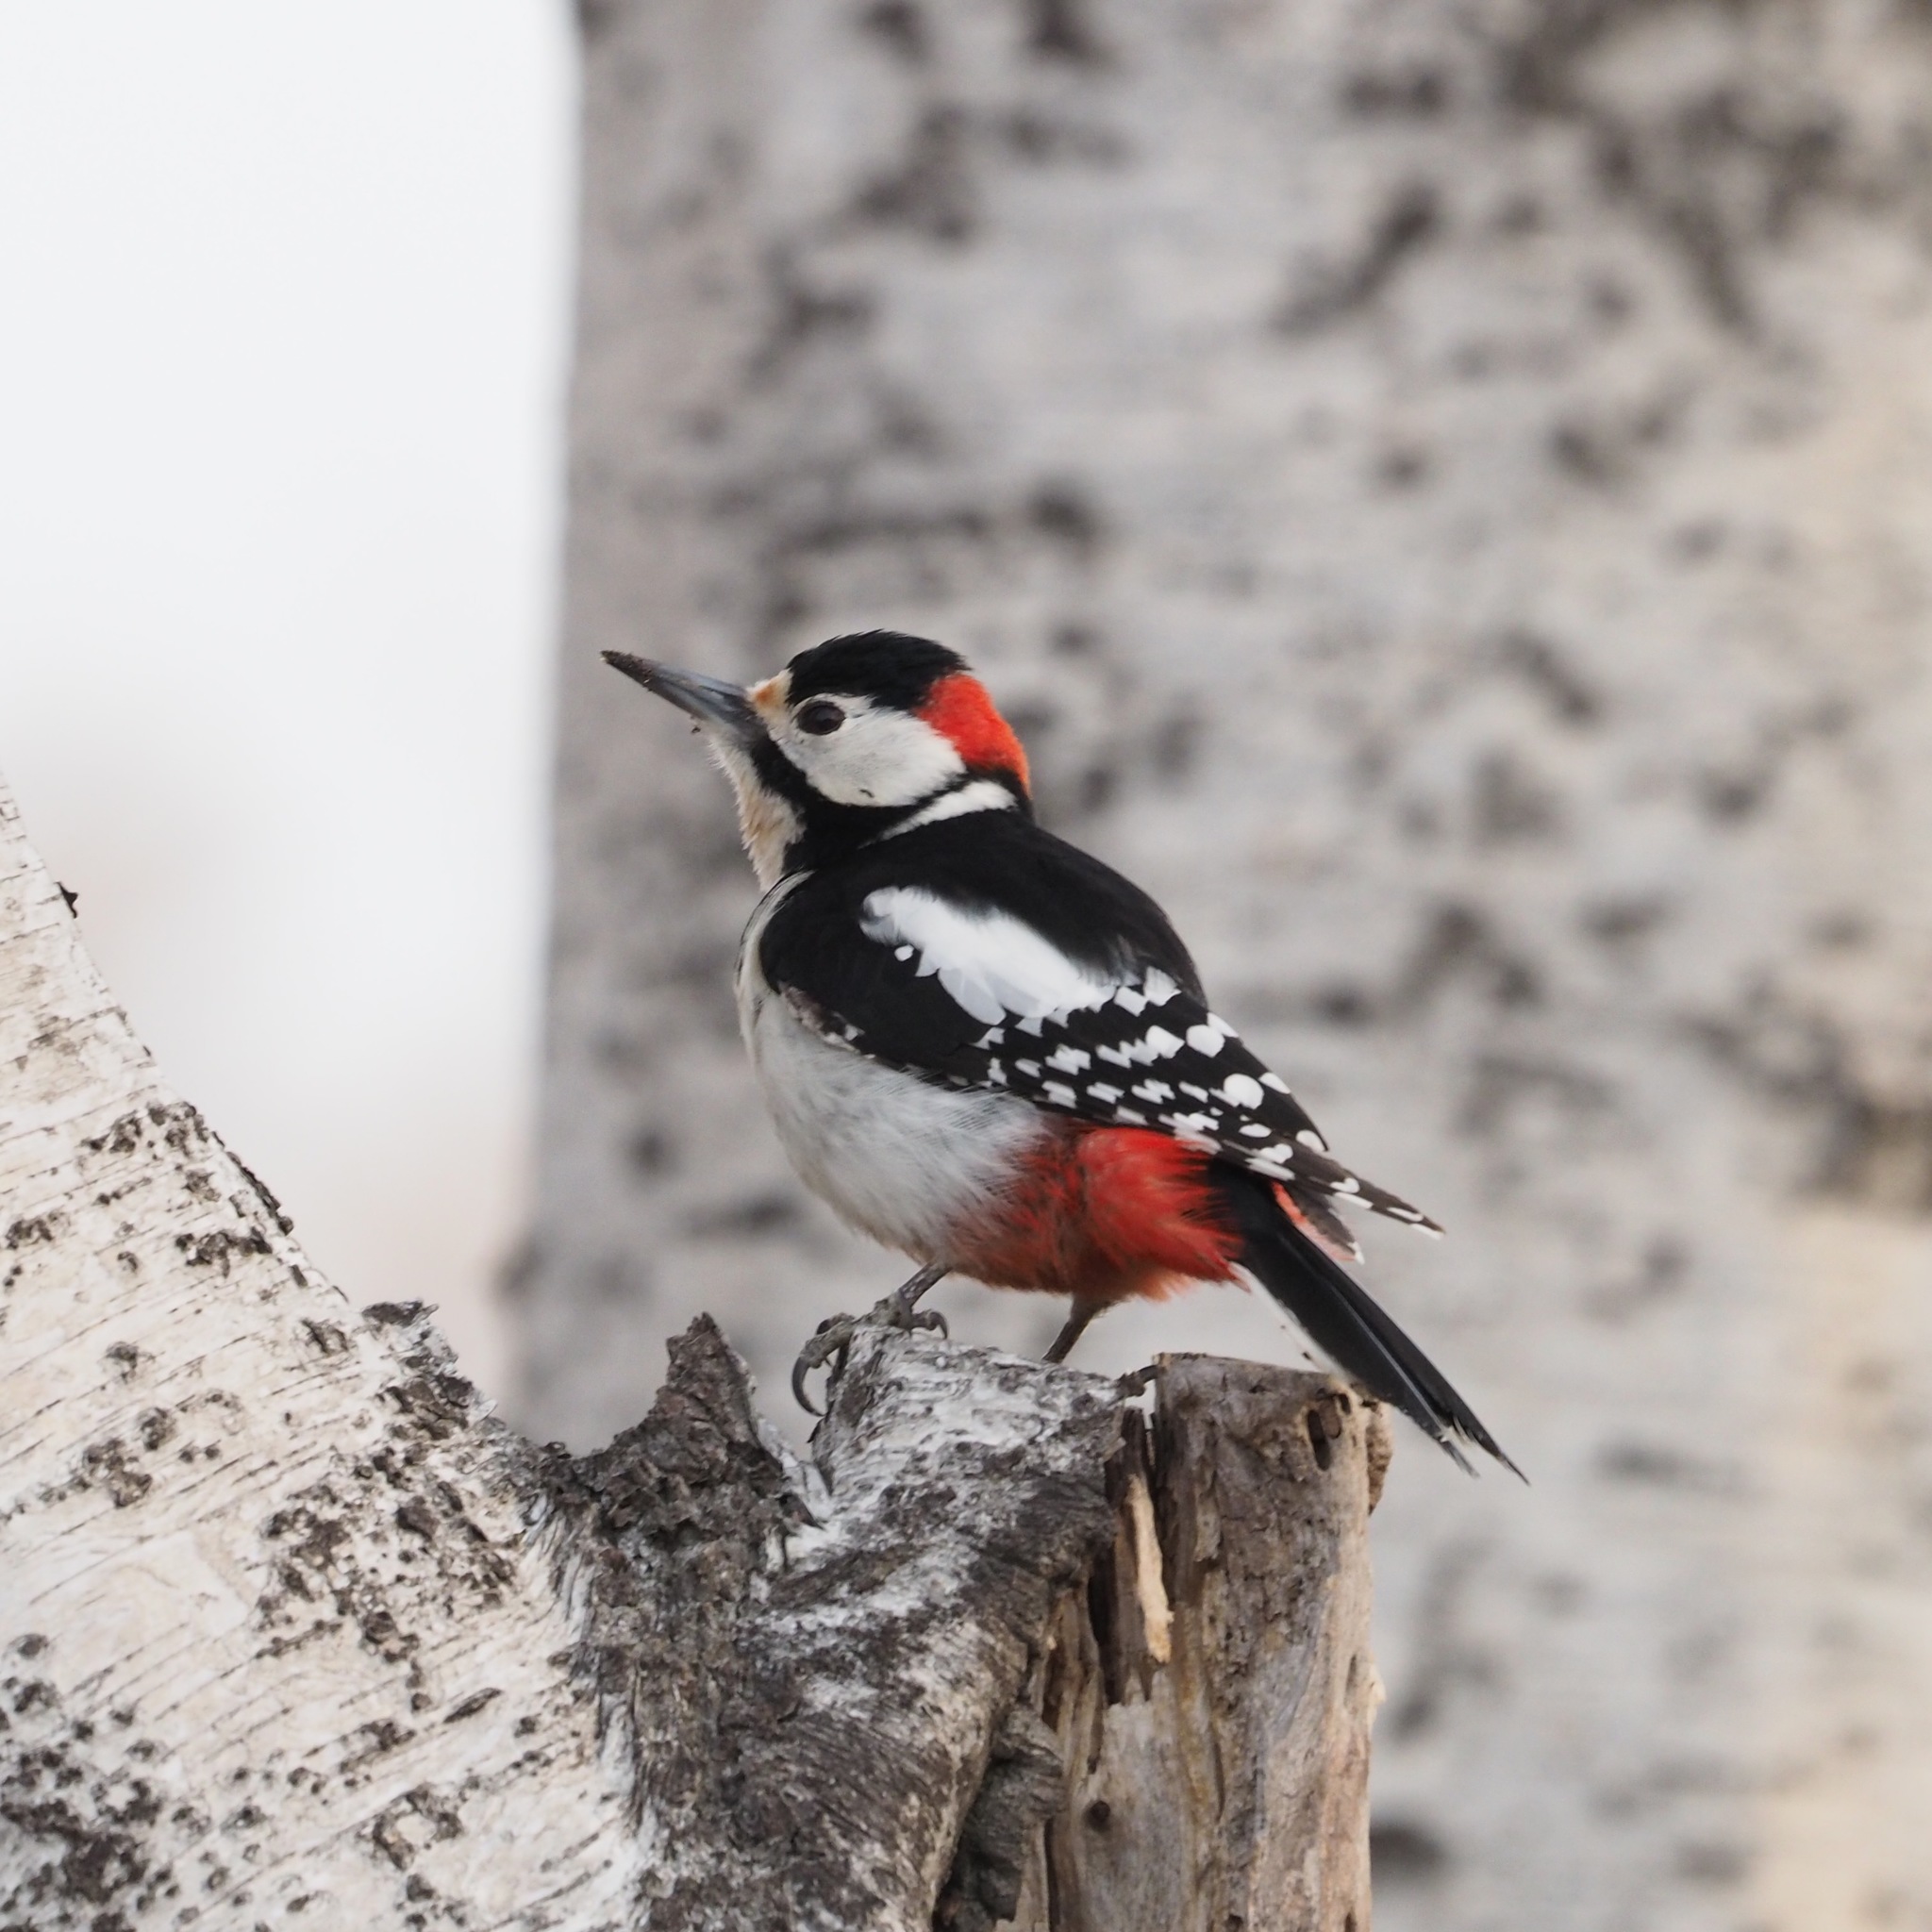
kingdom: Animalia
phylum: Chordata
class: Aves
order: Piciformes
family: Picidae
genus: Dendrocopos
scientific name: Dendrocopos major
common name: Great spotted woodpecker
